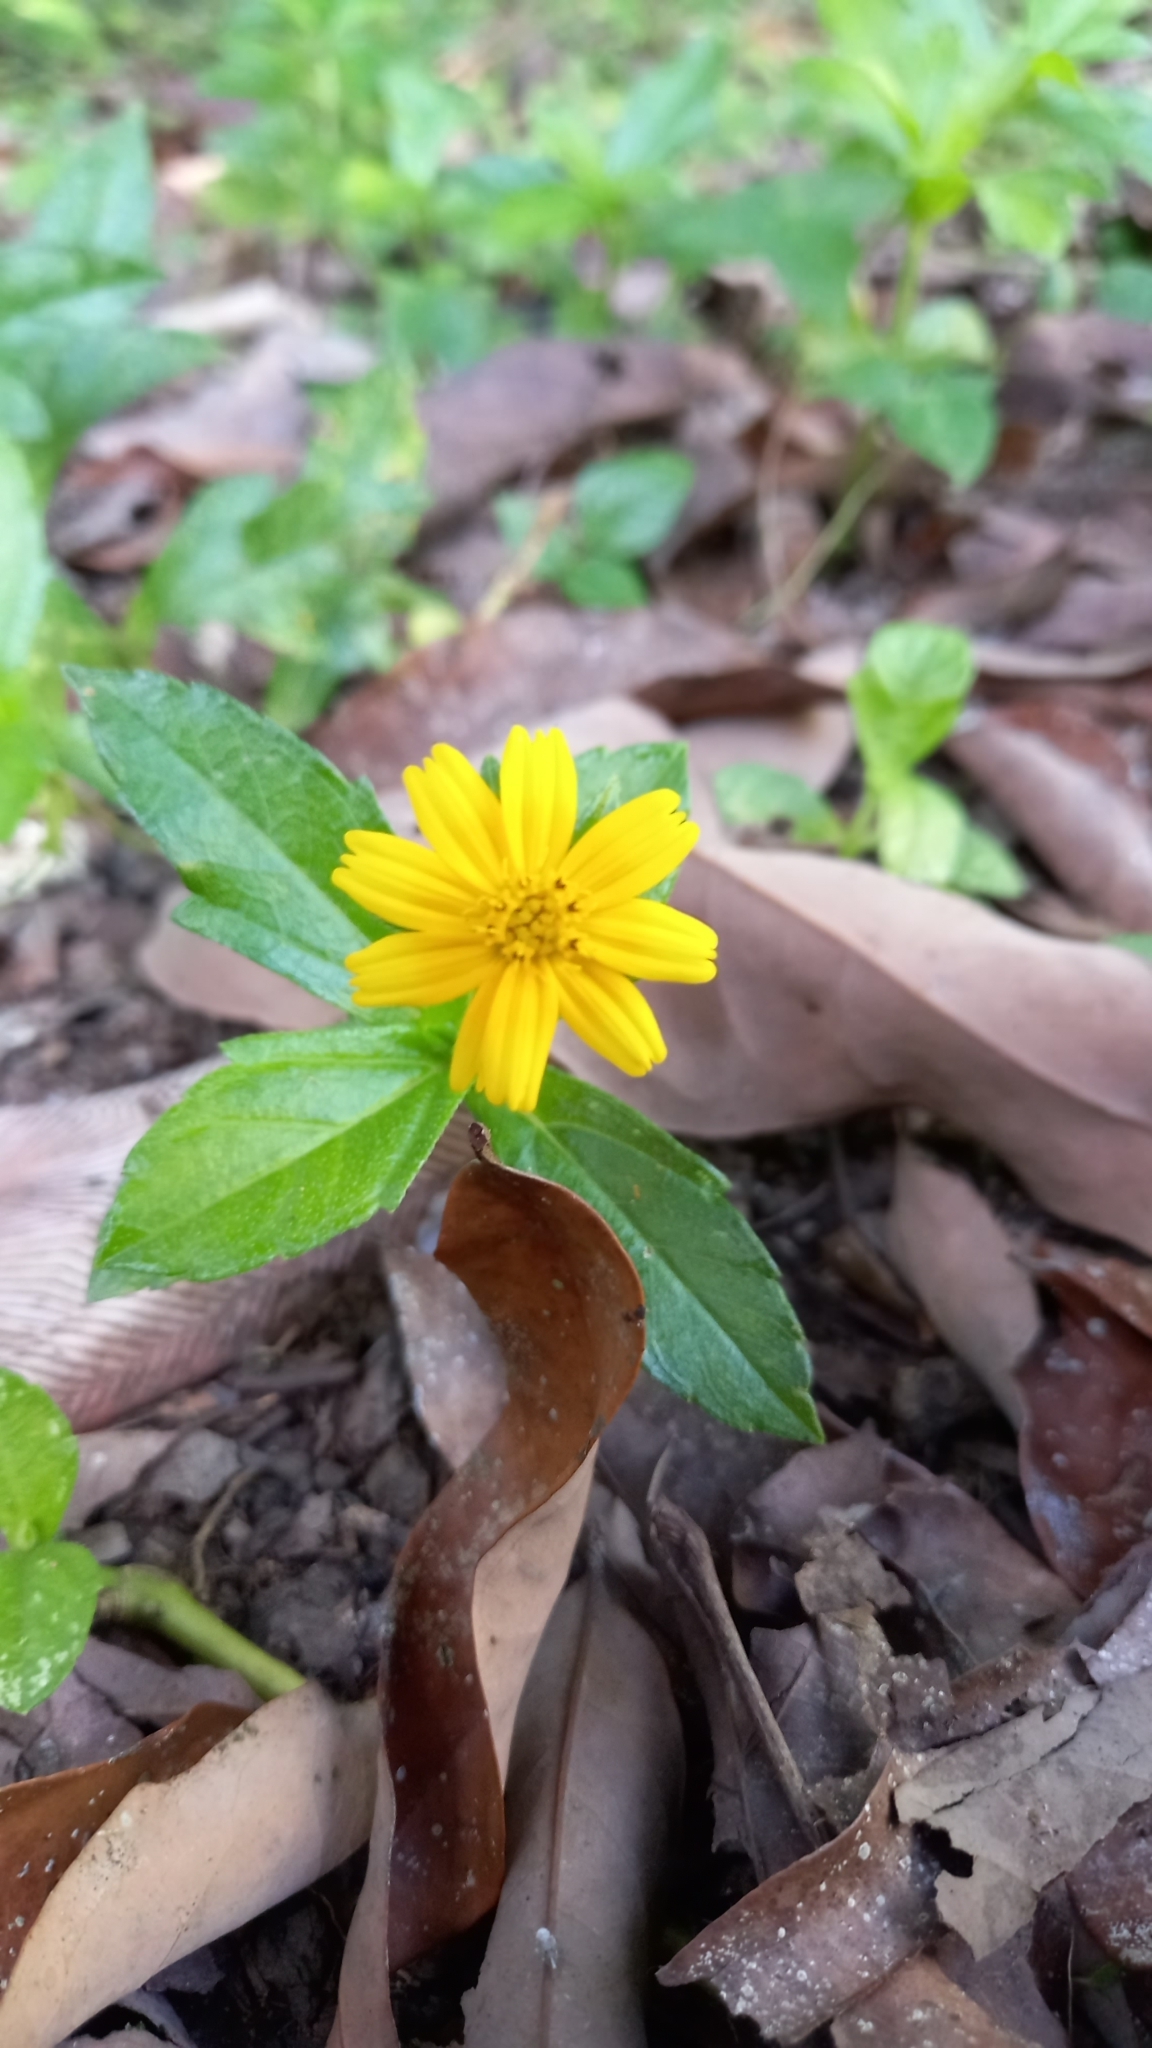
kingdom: Plantae
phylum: Tracheophyta
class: Magnoliopsida
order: Asterales
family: Asteraceae
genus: Sphagneticola
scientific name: Sphagneticola trilobata
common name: Bay biscayne creeping-oxeye
